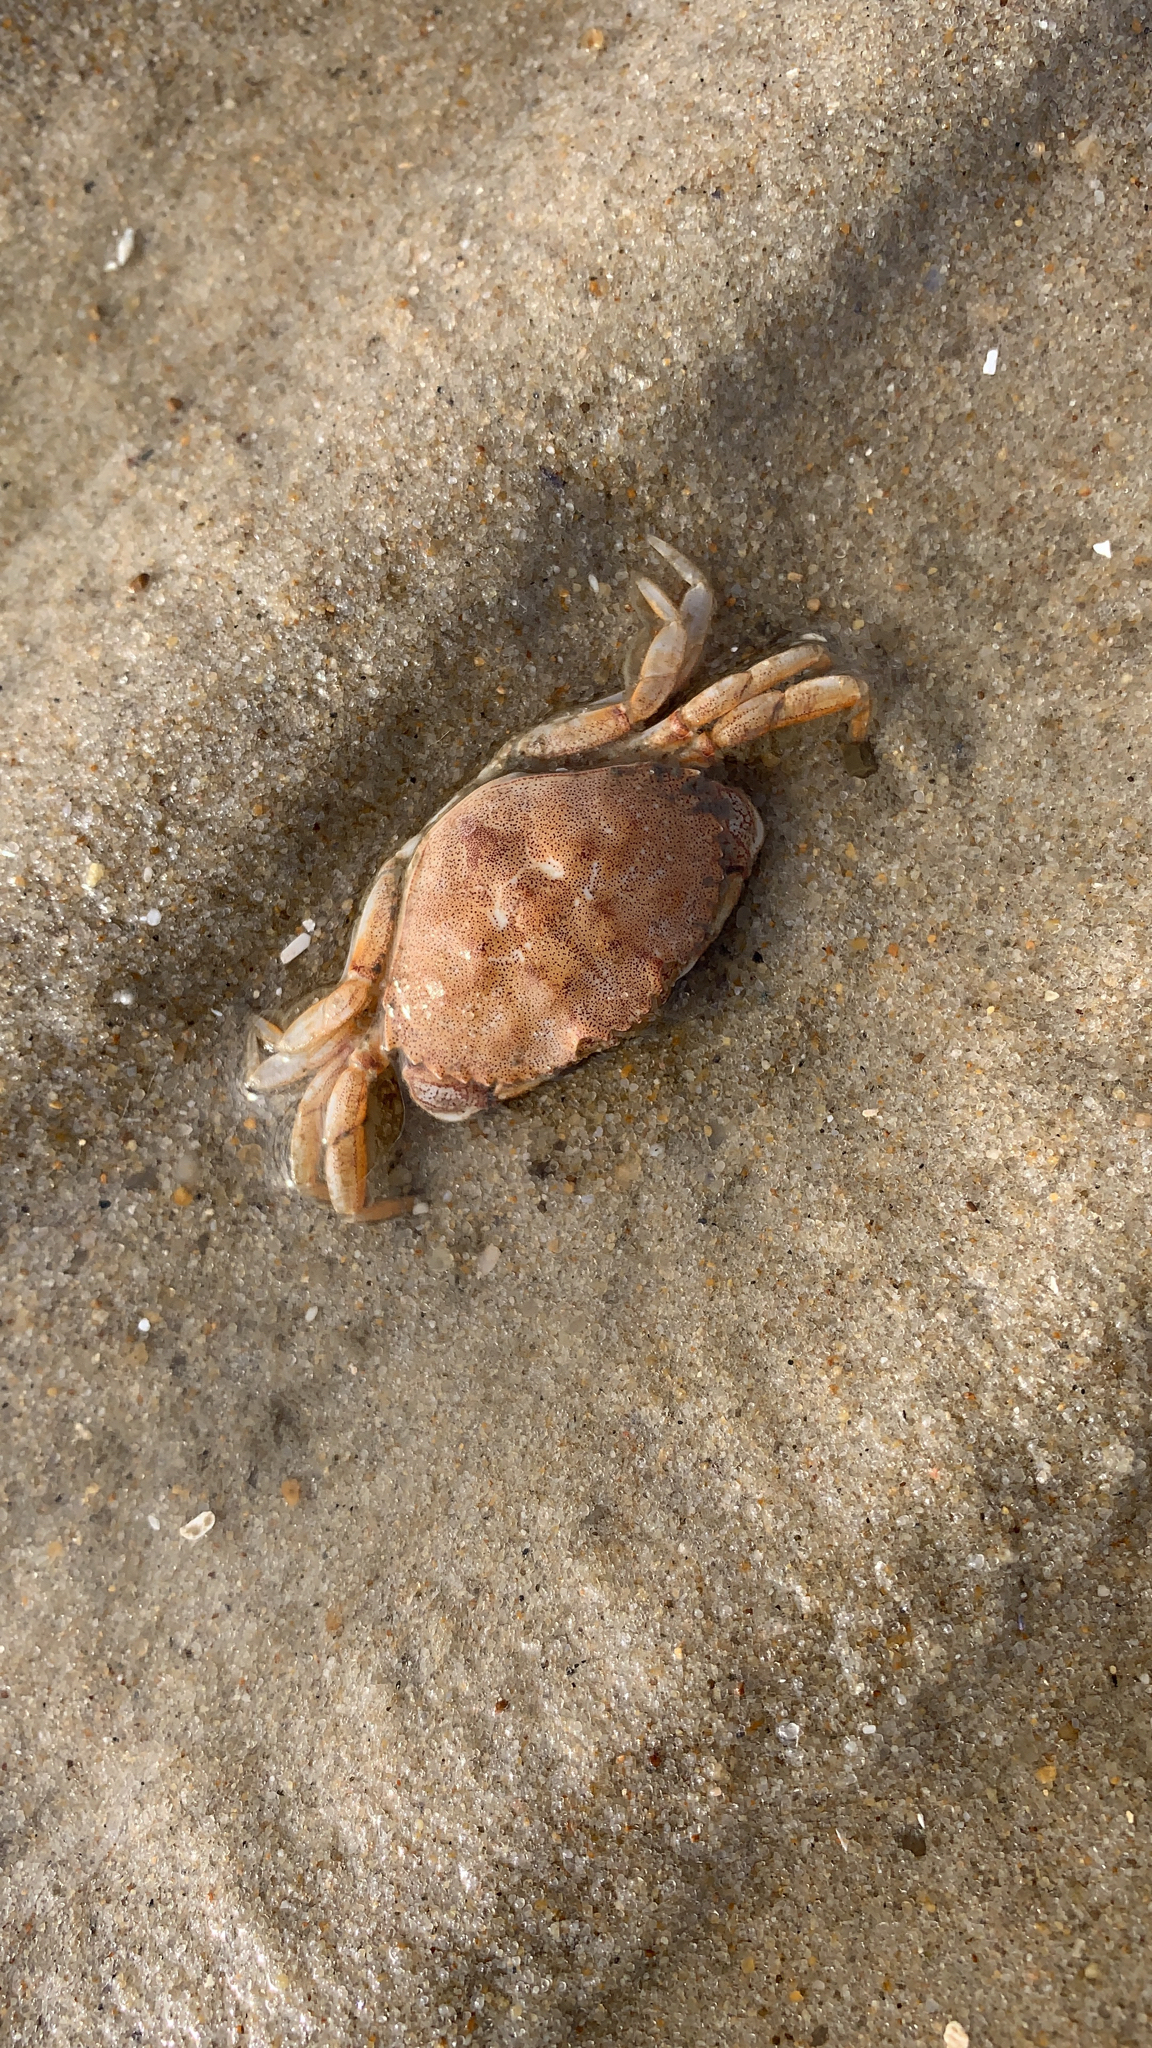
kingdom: Animalia
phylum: Arthropoda
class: Malacostraca
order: Decapoda
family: Cancridae
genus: Cancer
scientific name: Cancer irroratus
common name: Atlantic rock crab
